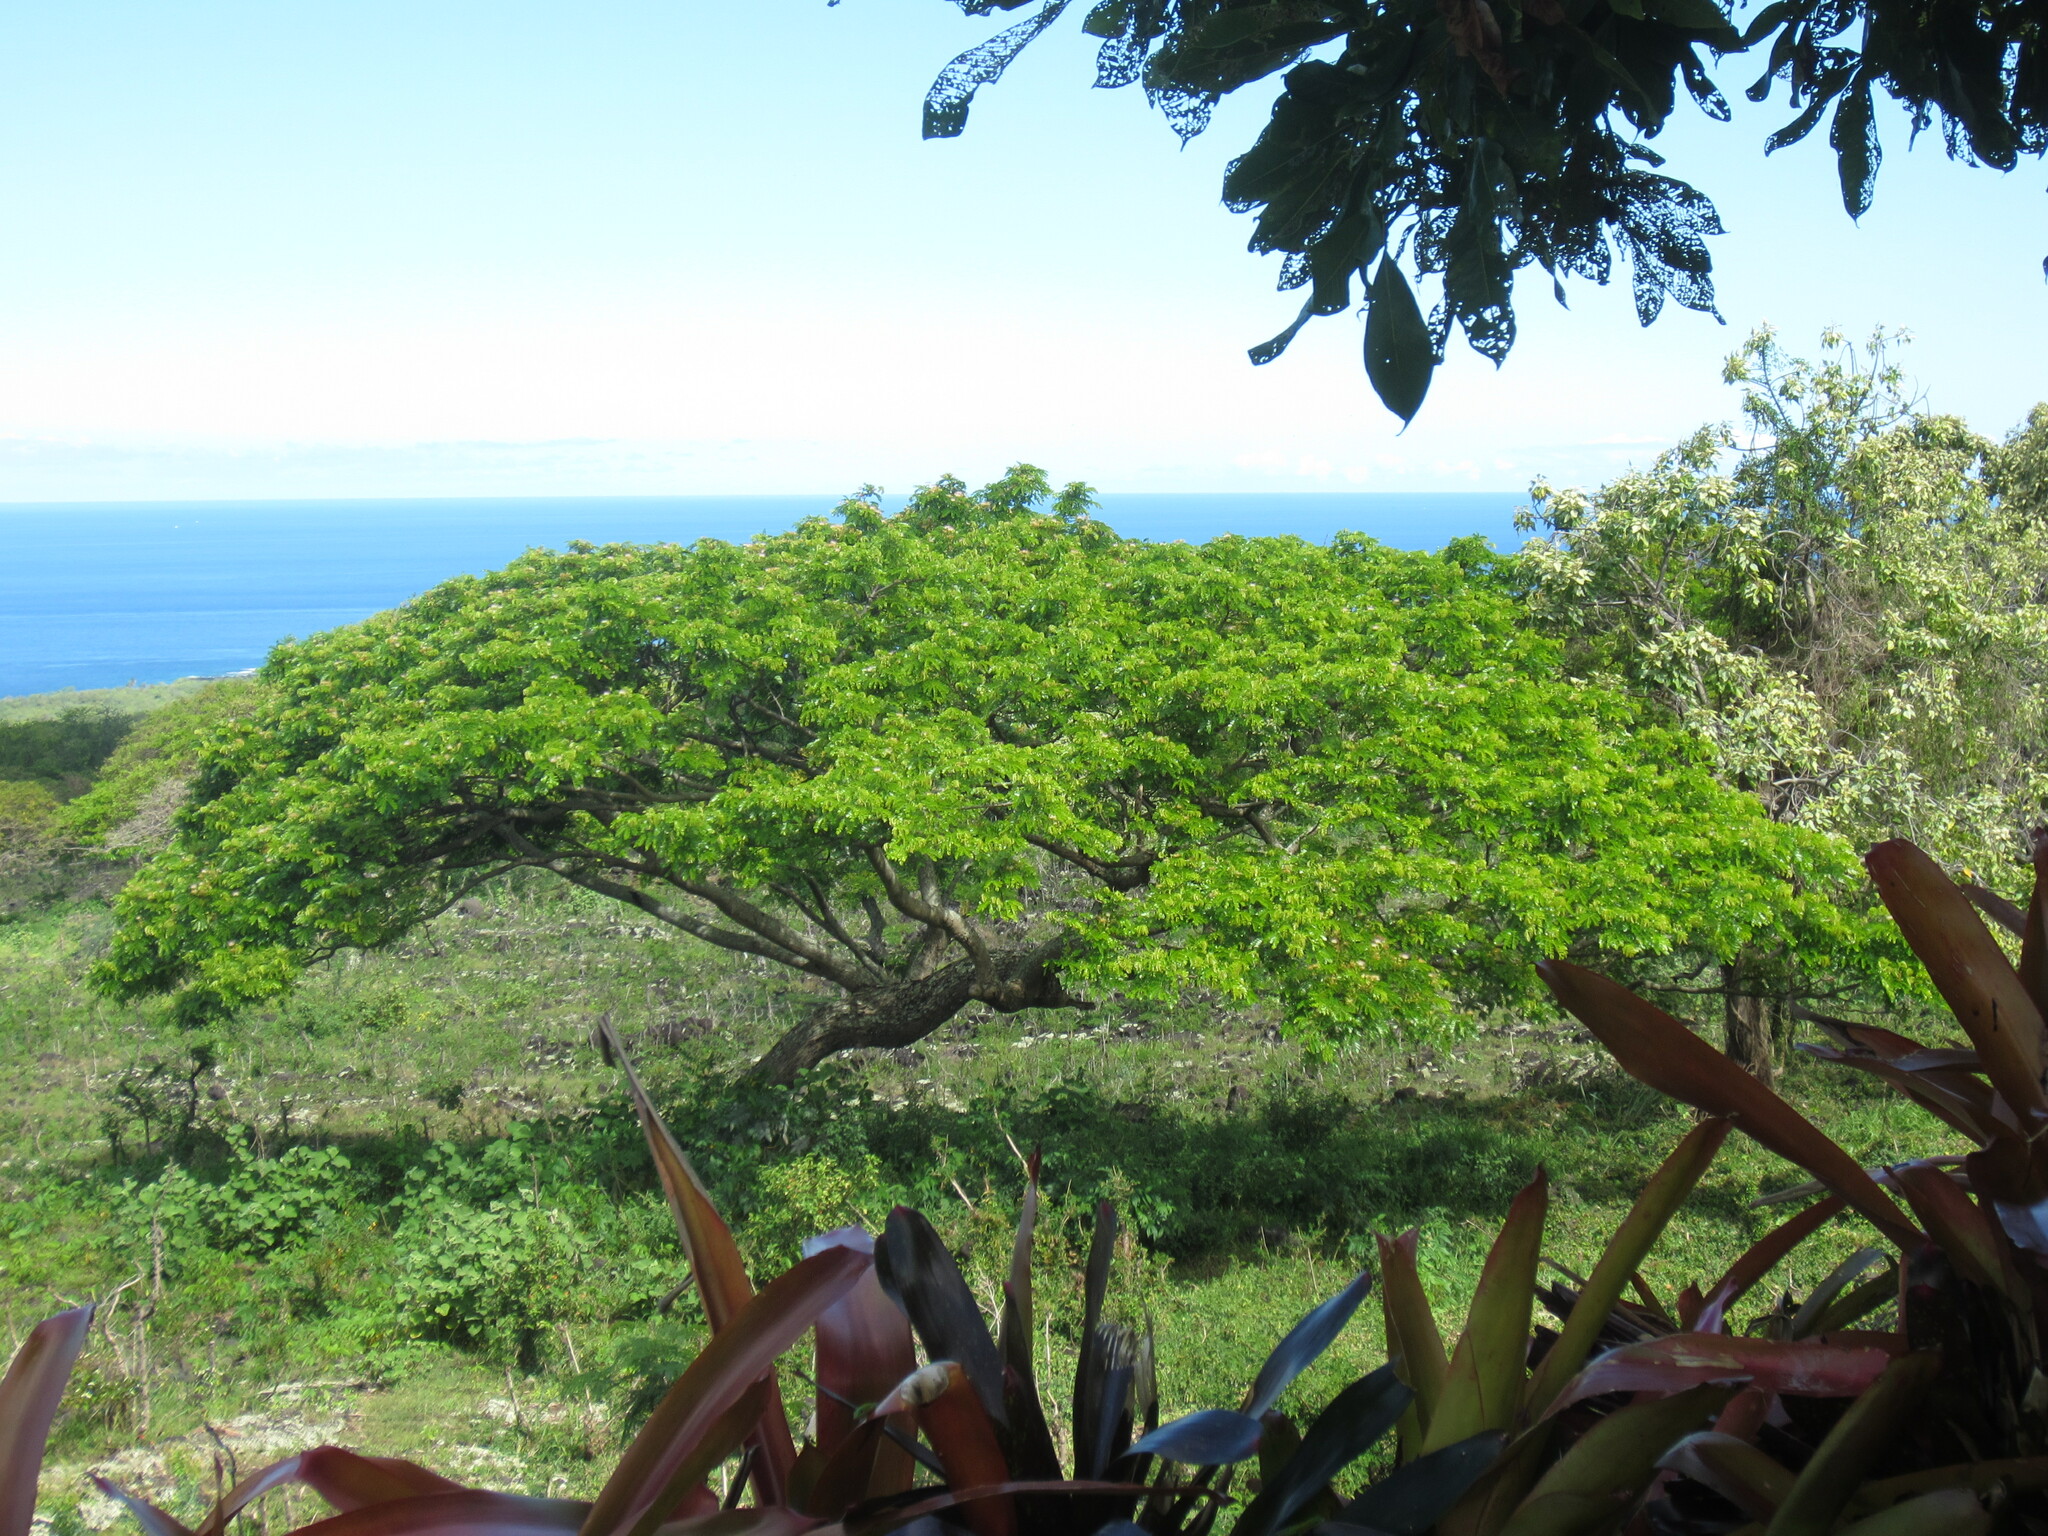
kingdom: Plantae
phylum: Tracheophyta
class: Magnoliopsida
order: Fabales
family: Fabaceae
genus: Samanea
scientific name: Samanea saman
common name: Raintree
